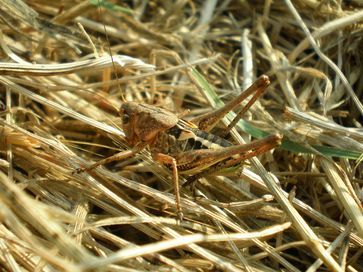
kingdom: Animalia
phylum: Arthropoda
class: Insecta
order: Orthoptera
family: Tettigoniidae
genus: Decticus
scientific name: Decticus albifrons
